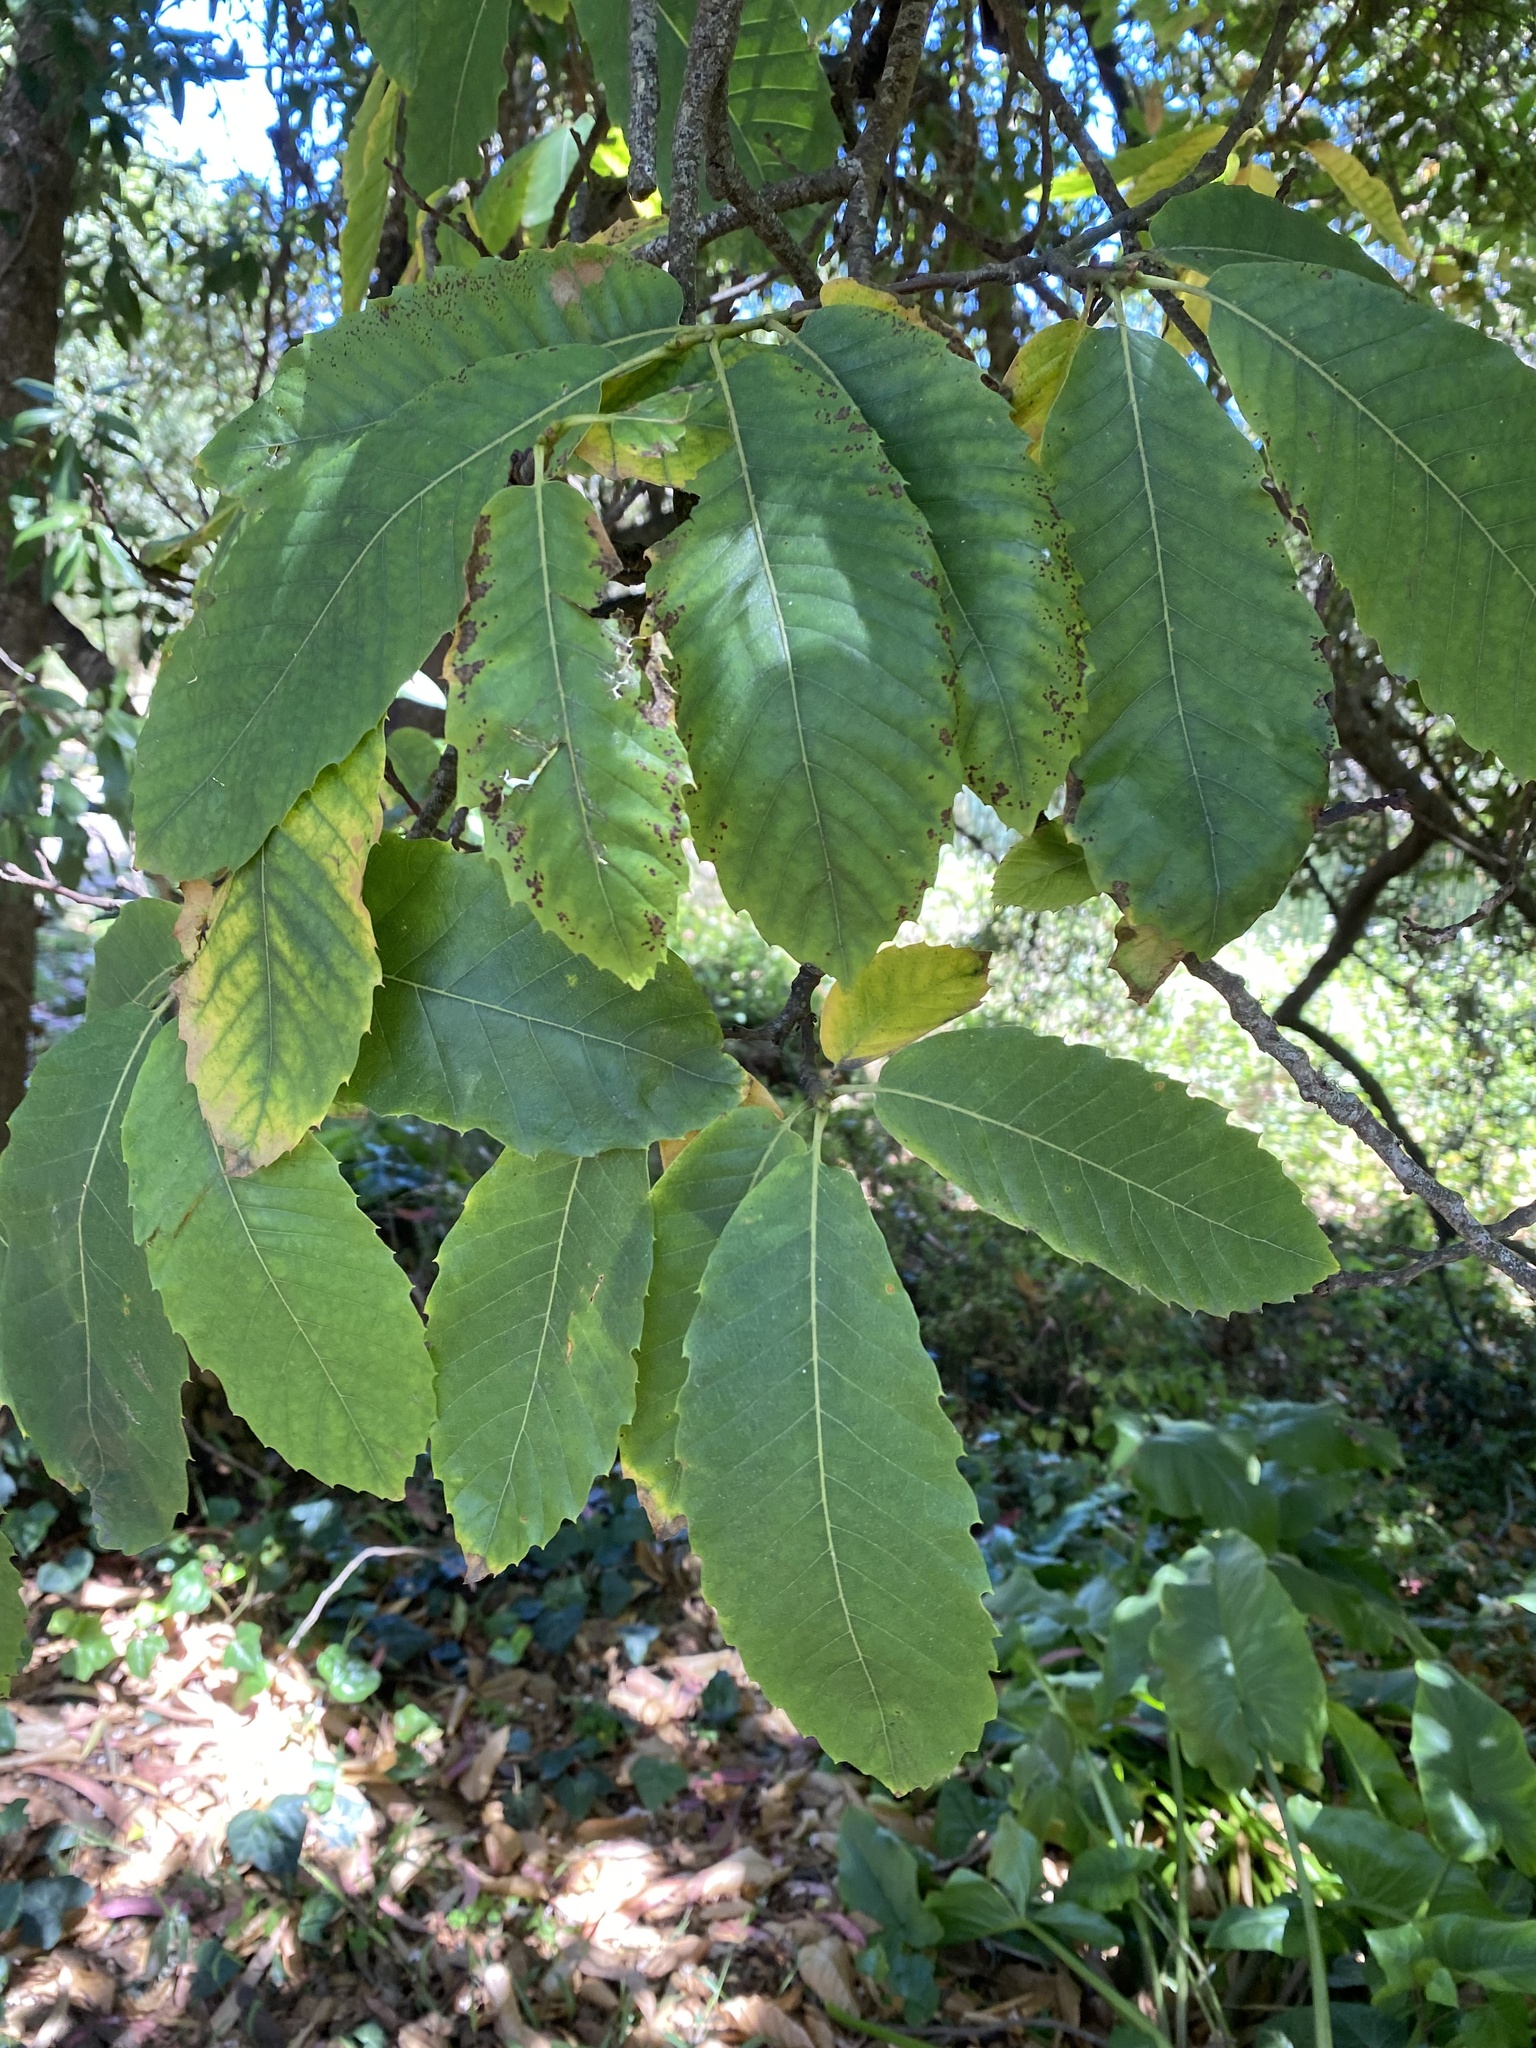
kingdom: Plantae
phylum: Tracheophyta
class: Magnoliopsida
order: Fagales
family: Fagaceae
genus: Castanea
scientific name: Castanea sativa
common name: Sweet chestnut
